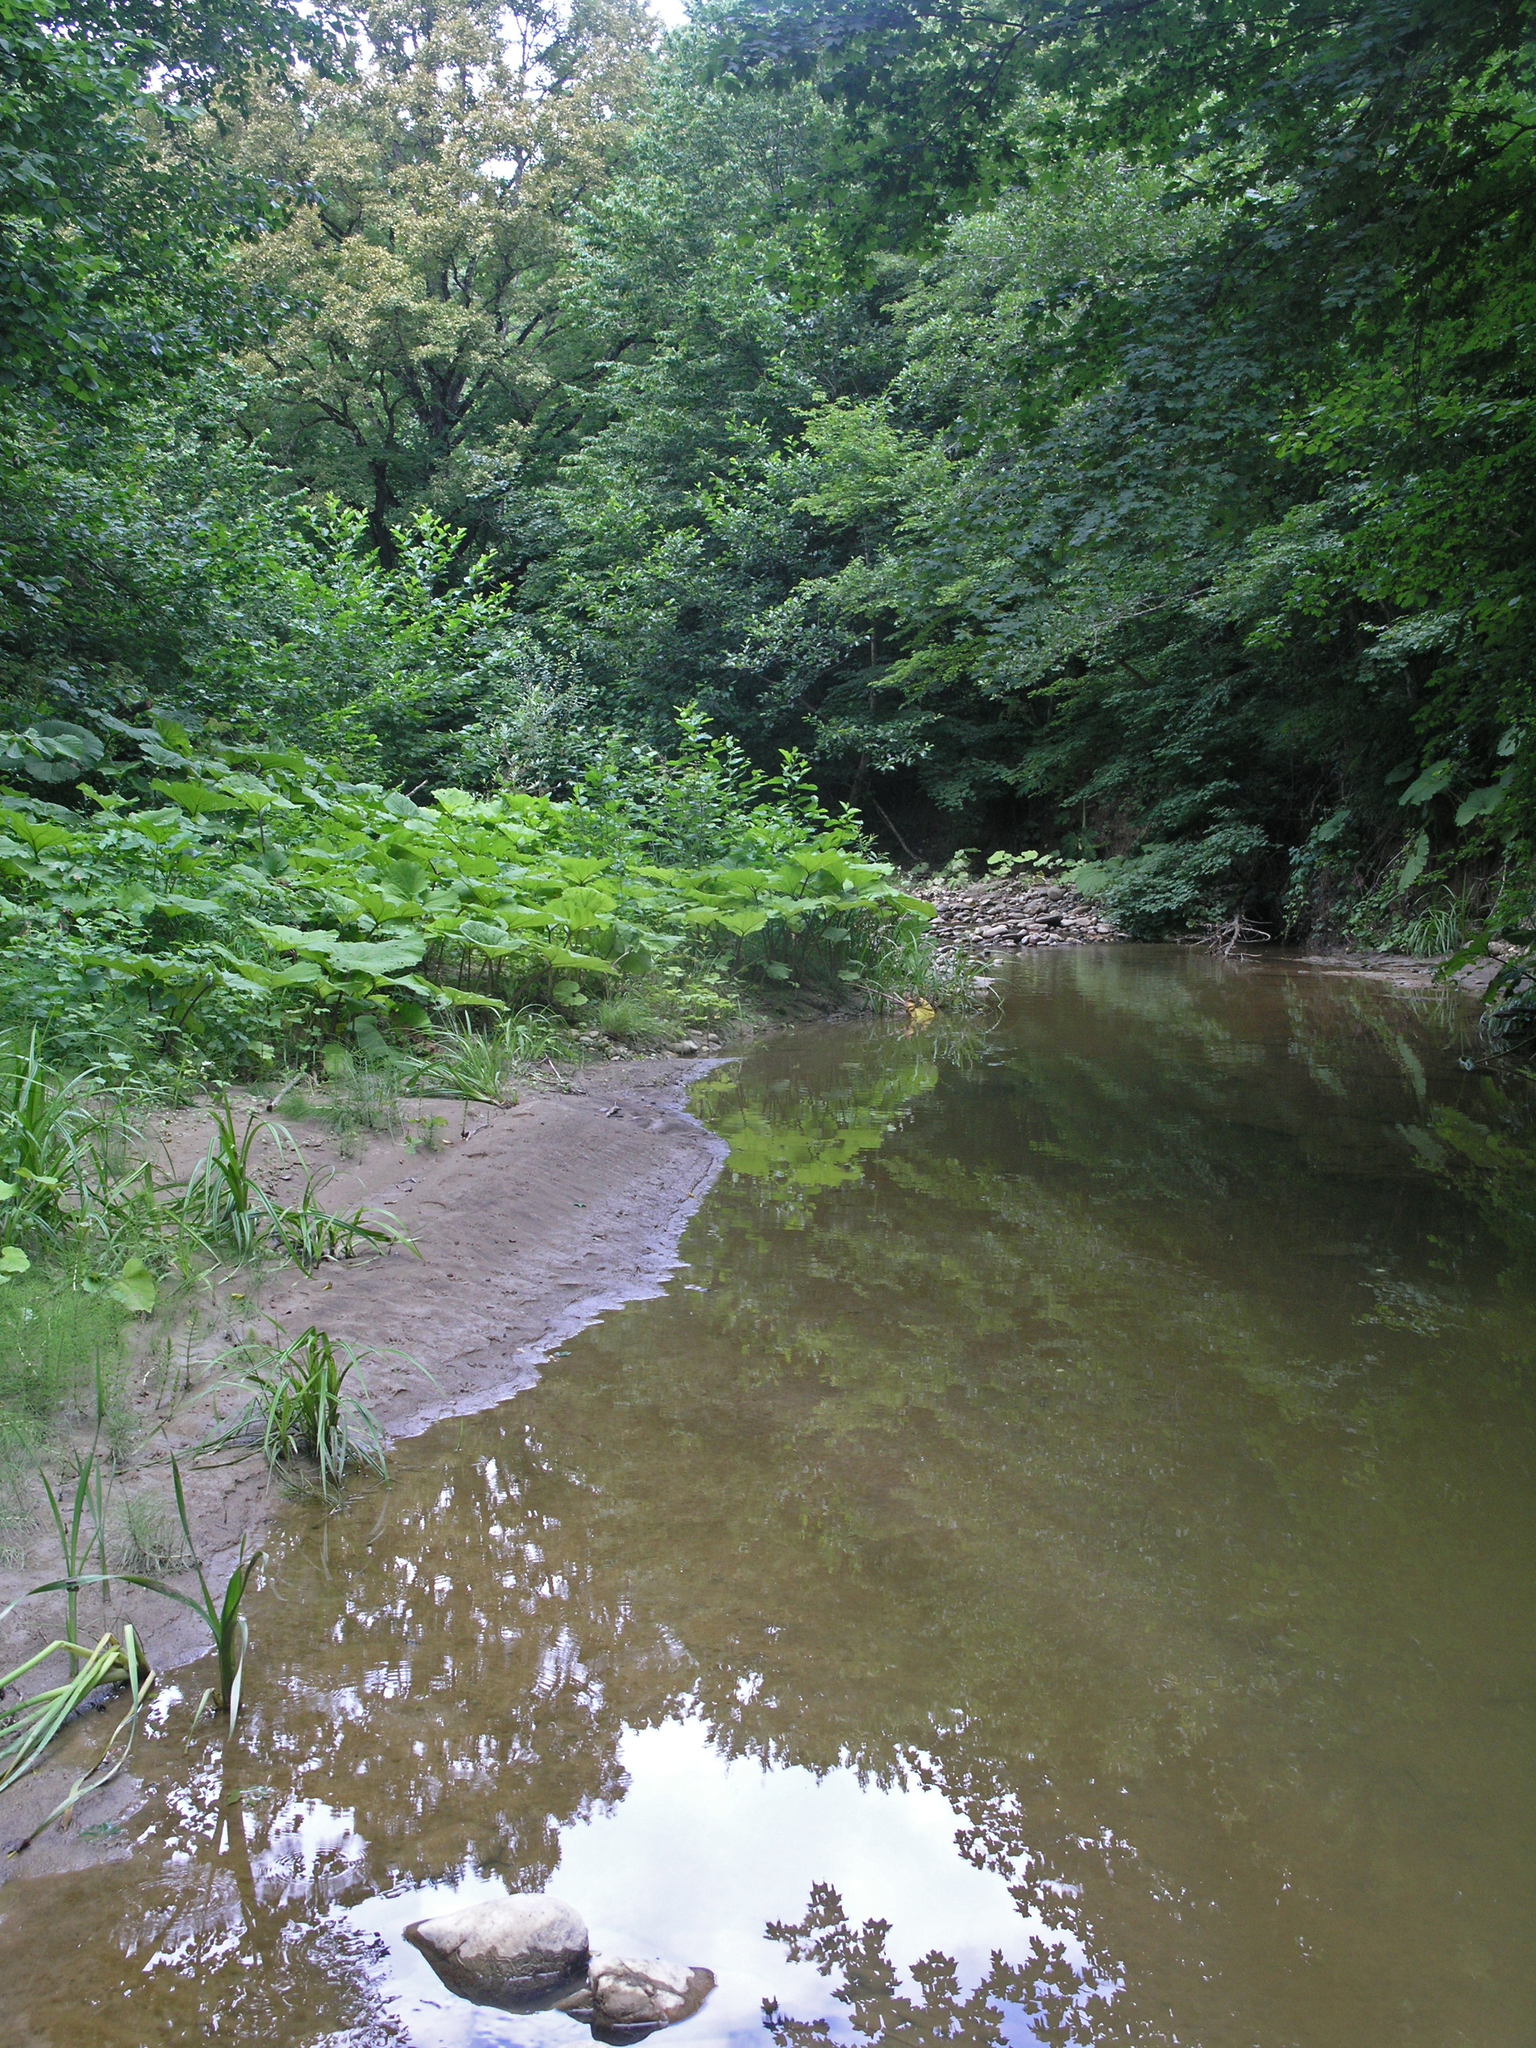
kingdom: Plantae
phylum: Tracheophyta
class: Magnoliopsida
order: Asterales
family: Asteraceae
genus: Petasites
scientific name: Petasites albus
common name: White butterbur
